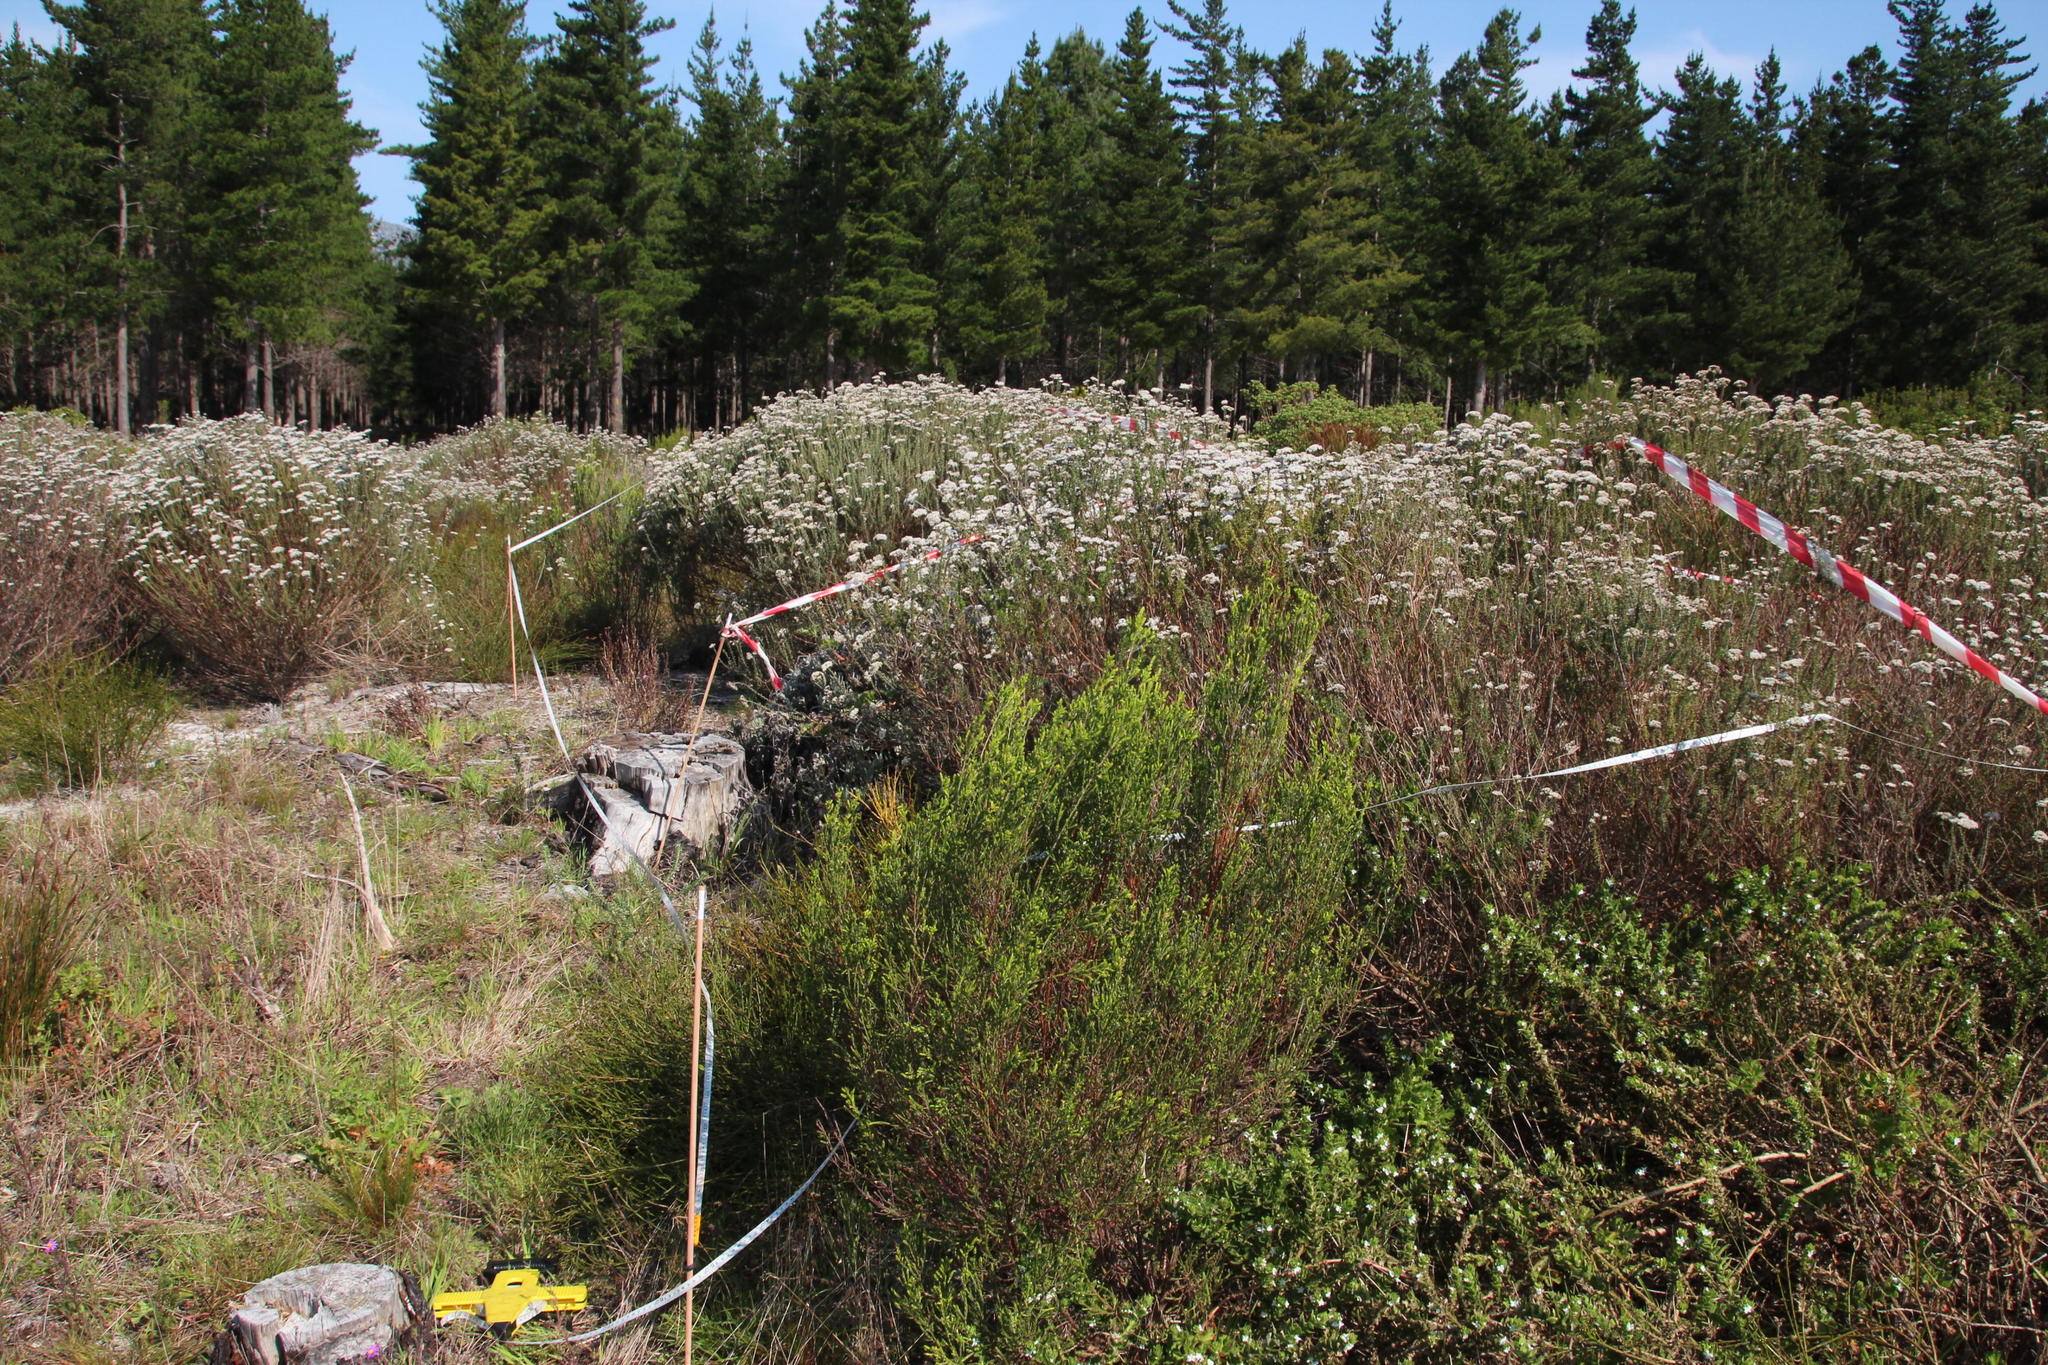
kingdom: Plantae
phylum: Tracheophyta
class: Magnoliopsida
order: Malvales
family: Thymelaeaceae
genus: Passerina
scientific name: Passerina corymbosa
